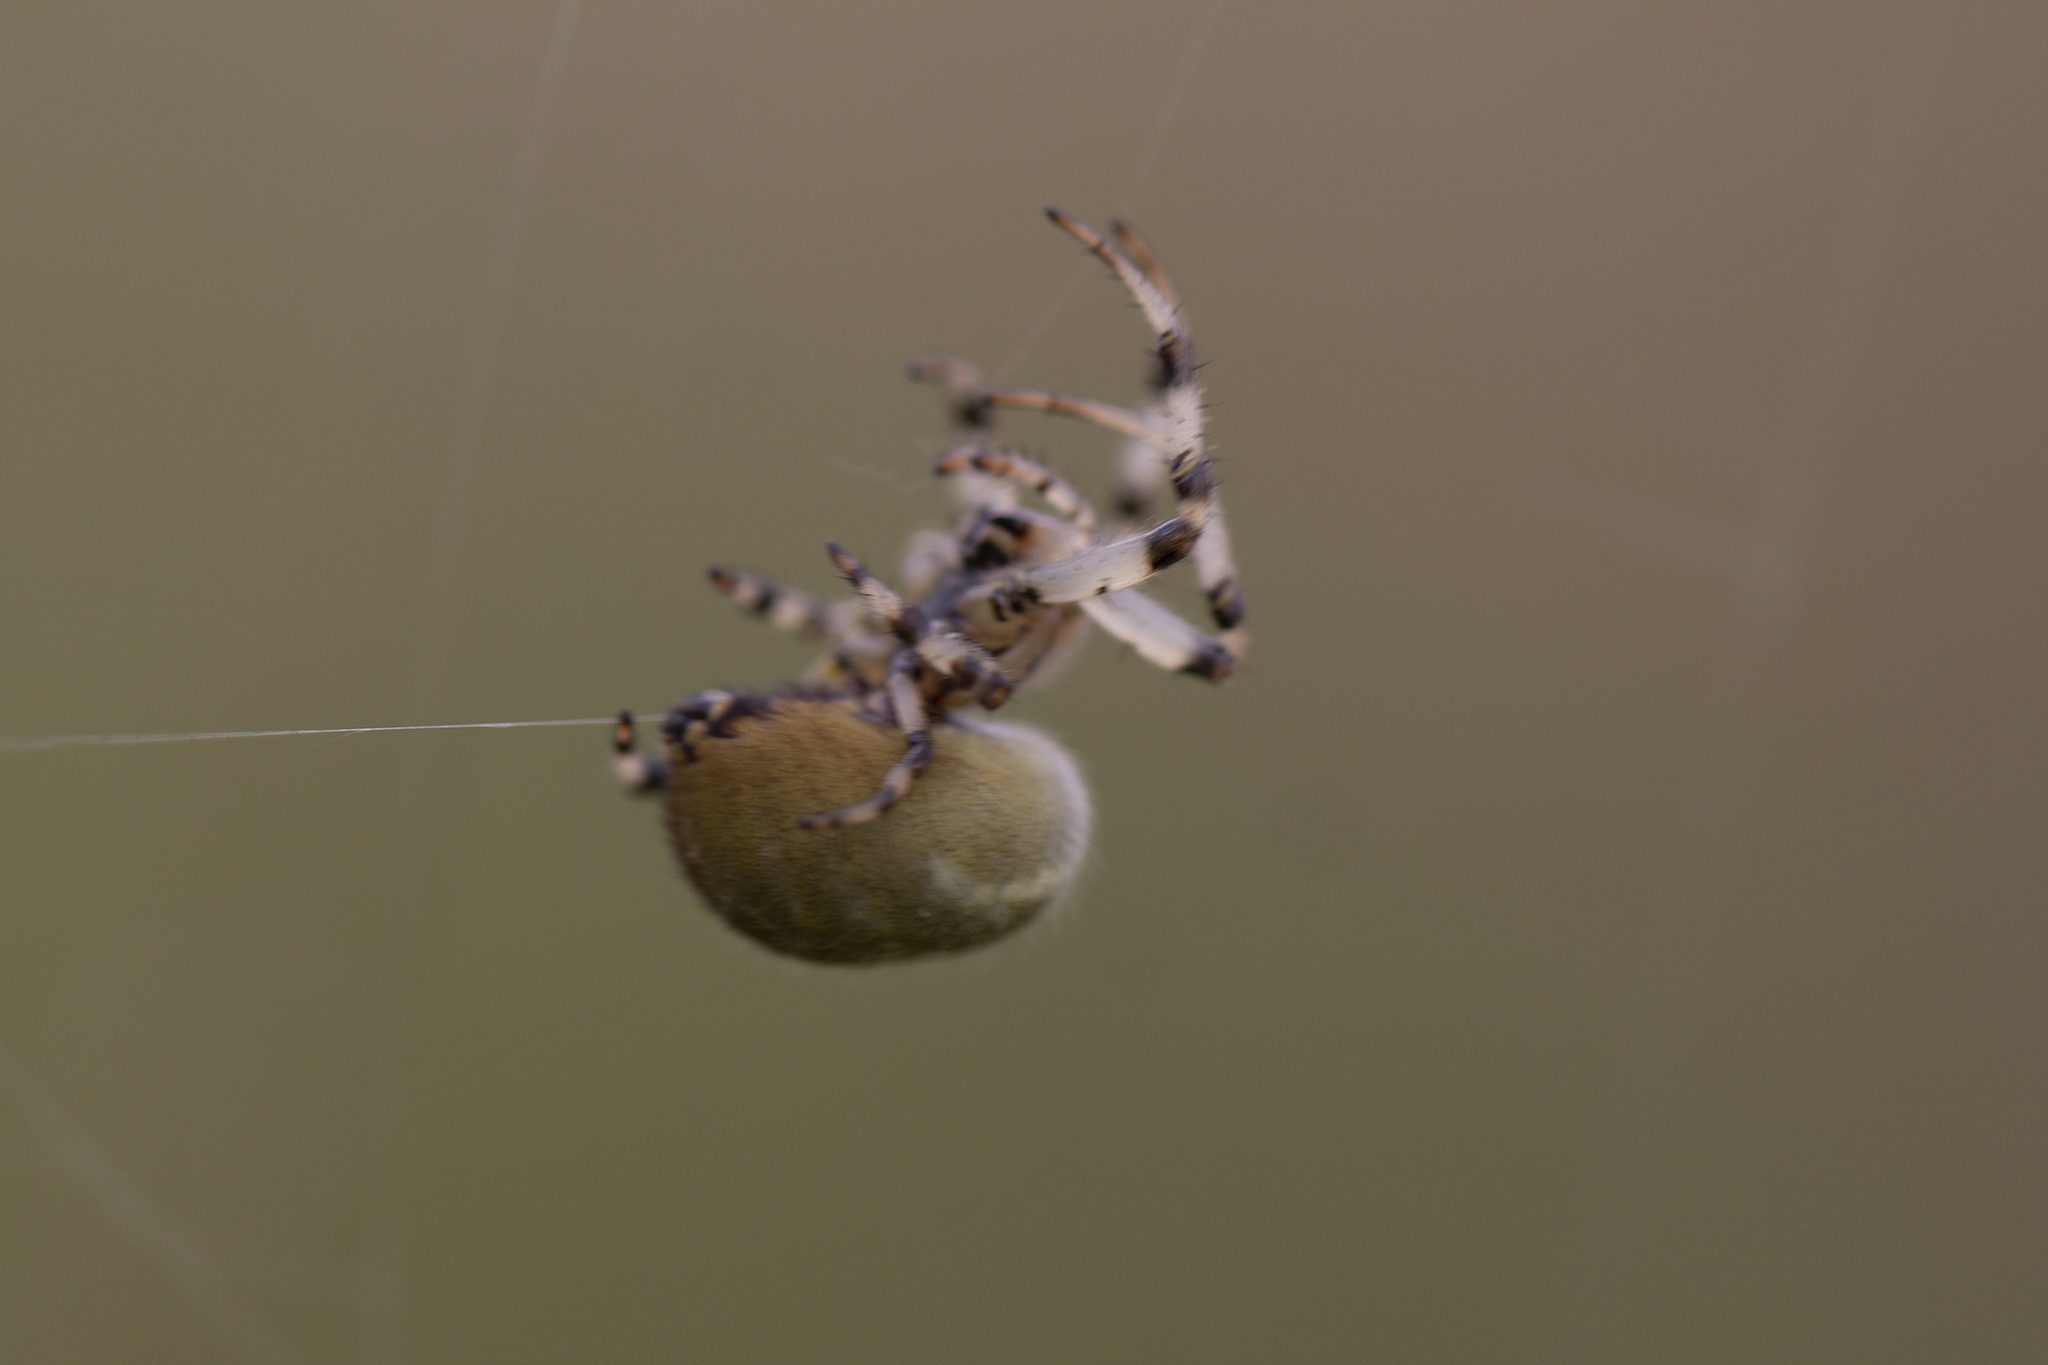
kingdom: Animalia
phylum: Arthropoda
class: Arachnida
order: Araneae
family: Araneidae
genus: Araneus
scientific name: Araneus quadratus
